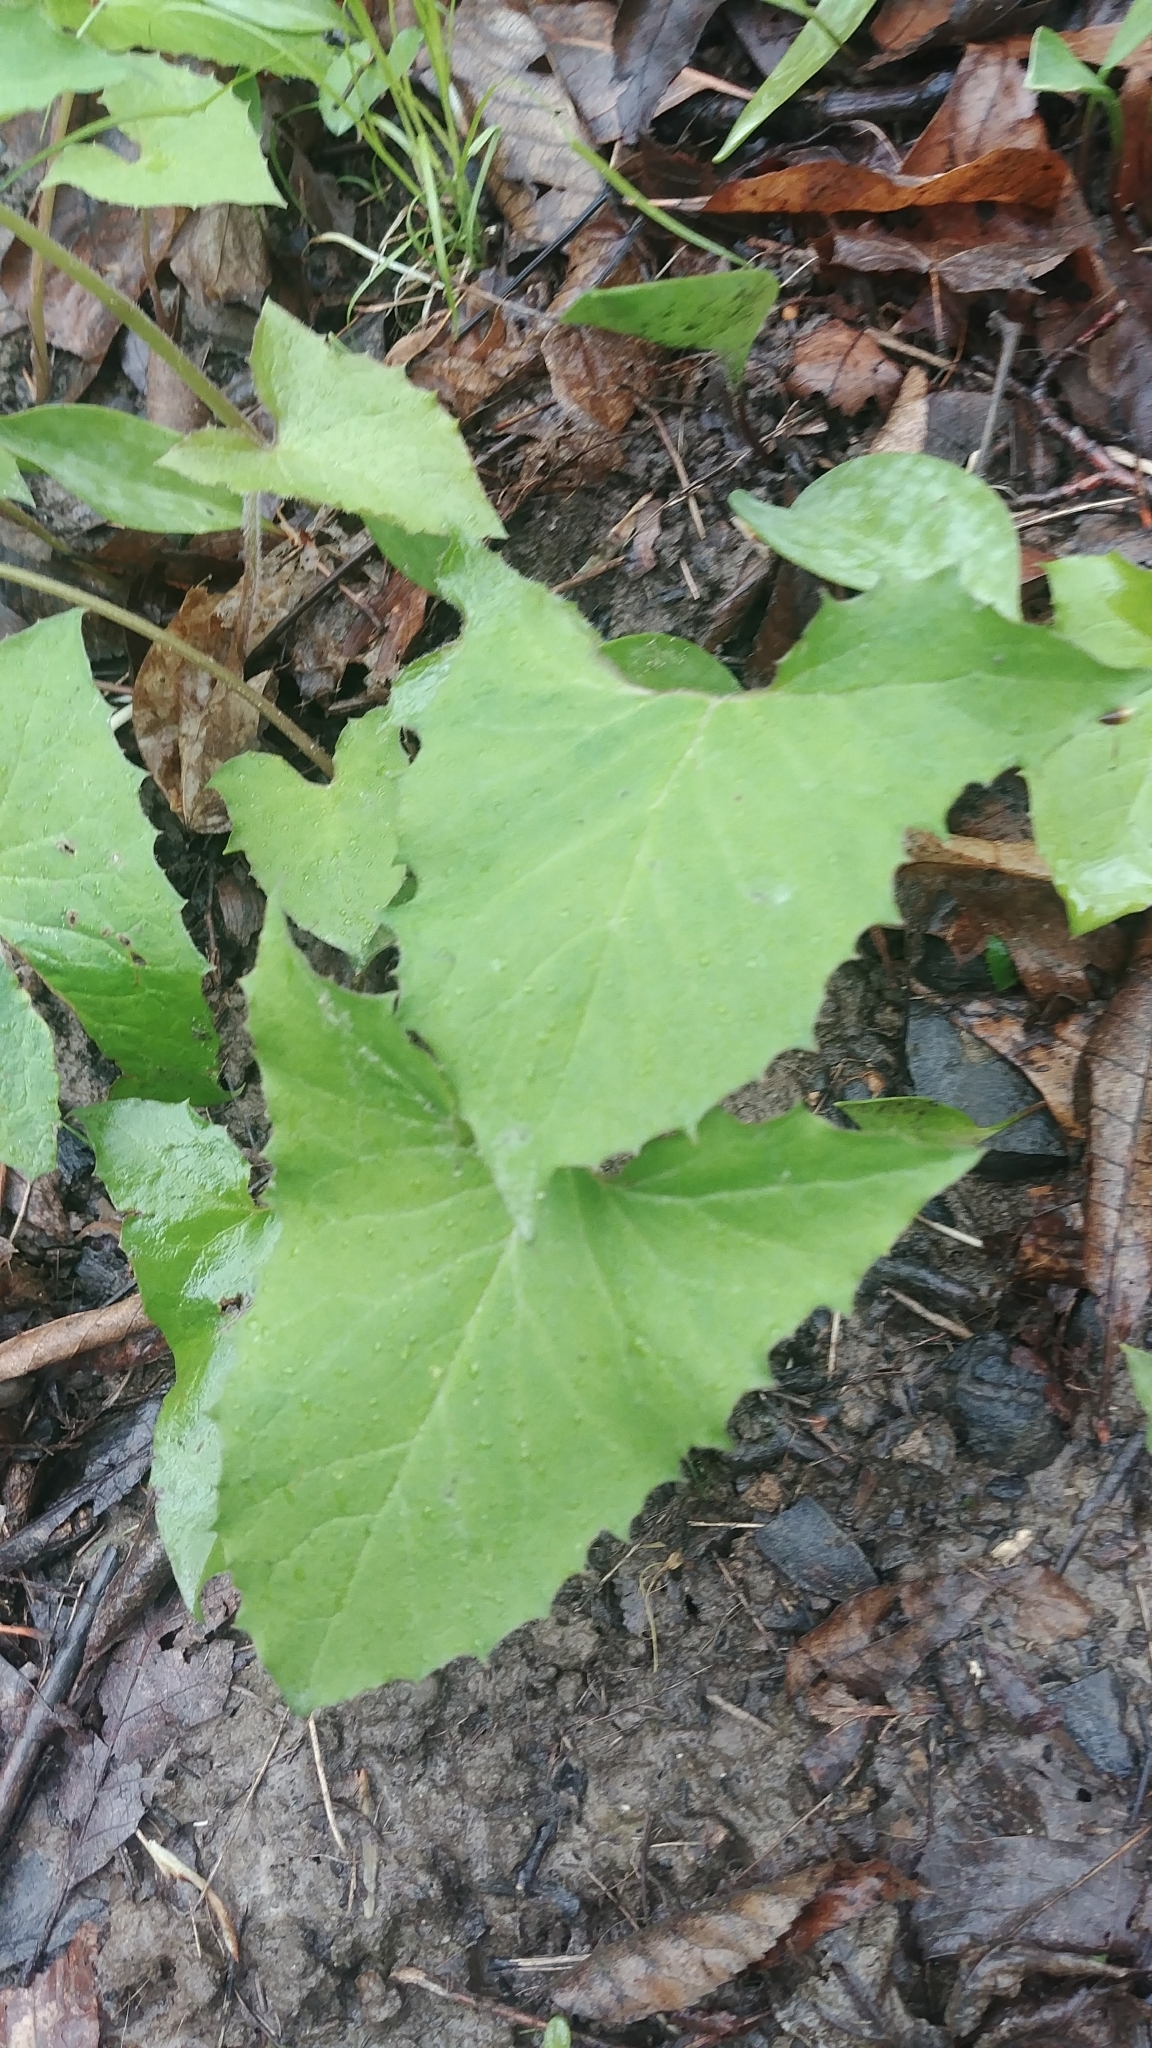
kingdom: Plantae
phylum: Tracheophyta
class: Magnoliopsida
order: Asterales
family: Asteraceae
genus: Nabalus
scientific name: Nabalus
